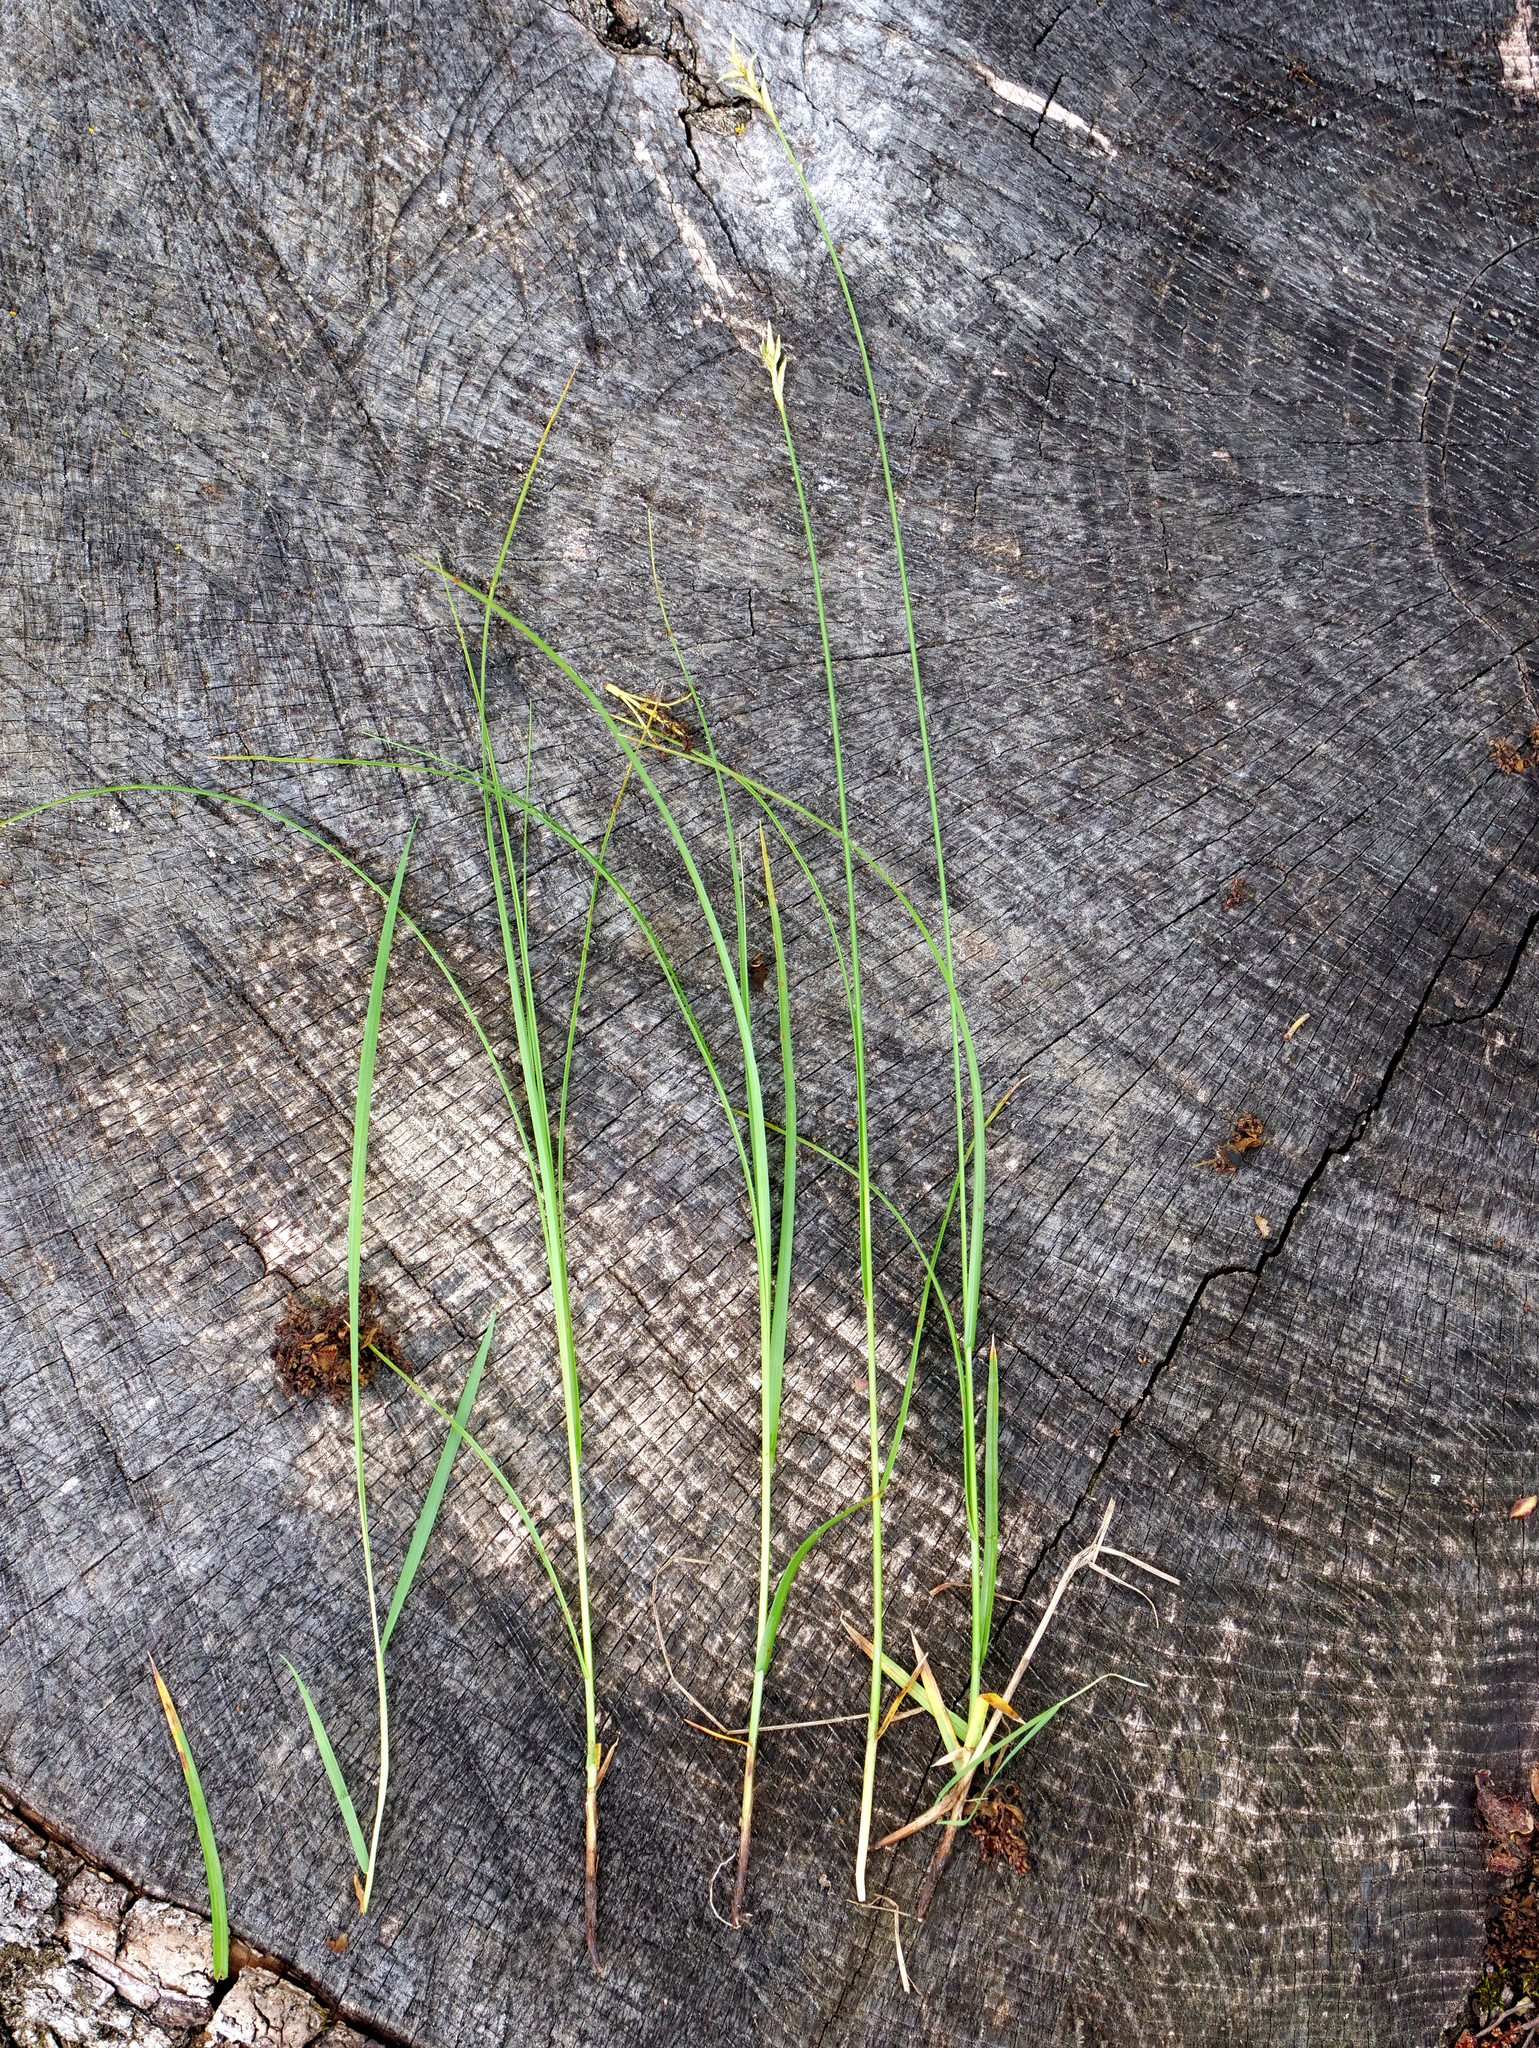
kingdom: Plantae
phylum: Tracheophyta
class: Liliopsida
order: Poales
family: Cyperaceae
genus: Carex
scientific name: Carex brizoides
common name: Quaking-grass sedge
